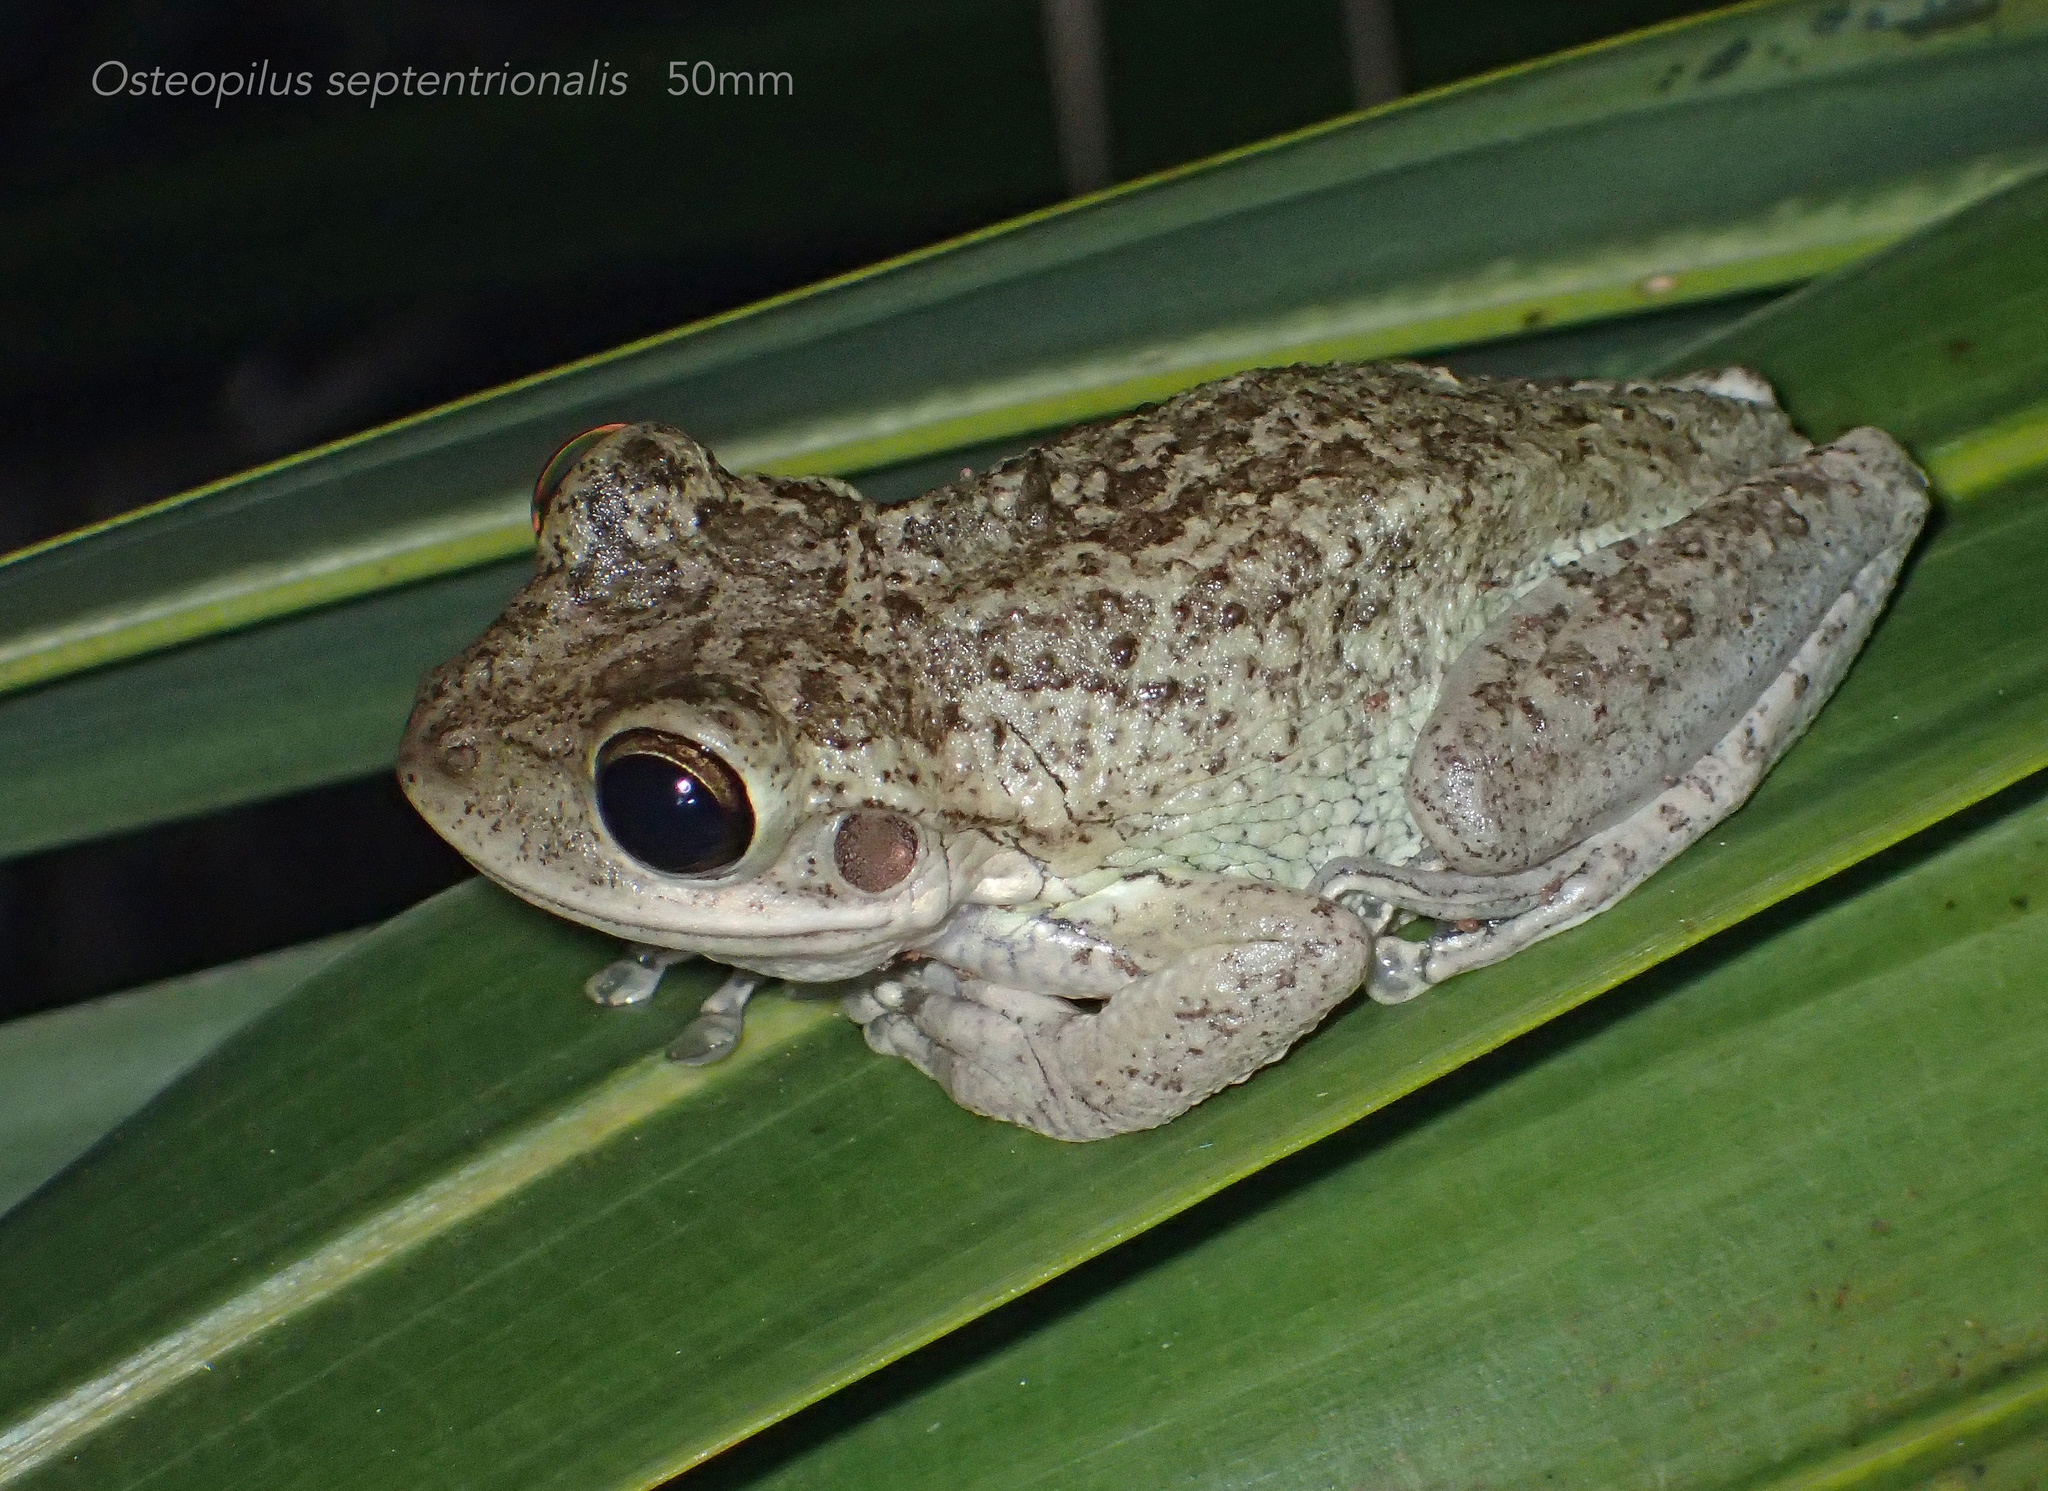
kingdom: Animalia
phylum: Chordata
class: Amphibia
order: Anura
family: Hylidae
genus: Osteopilus
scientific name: Osteopilus septentrionalis
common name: Cuban treefrog
